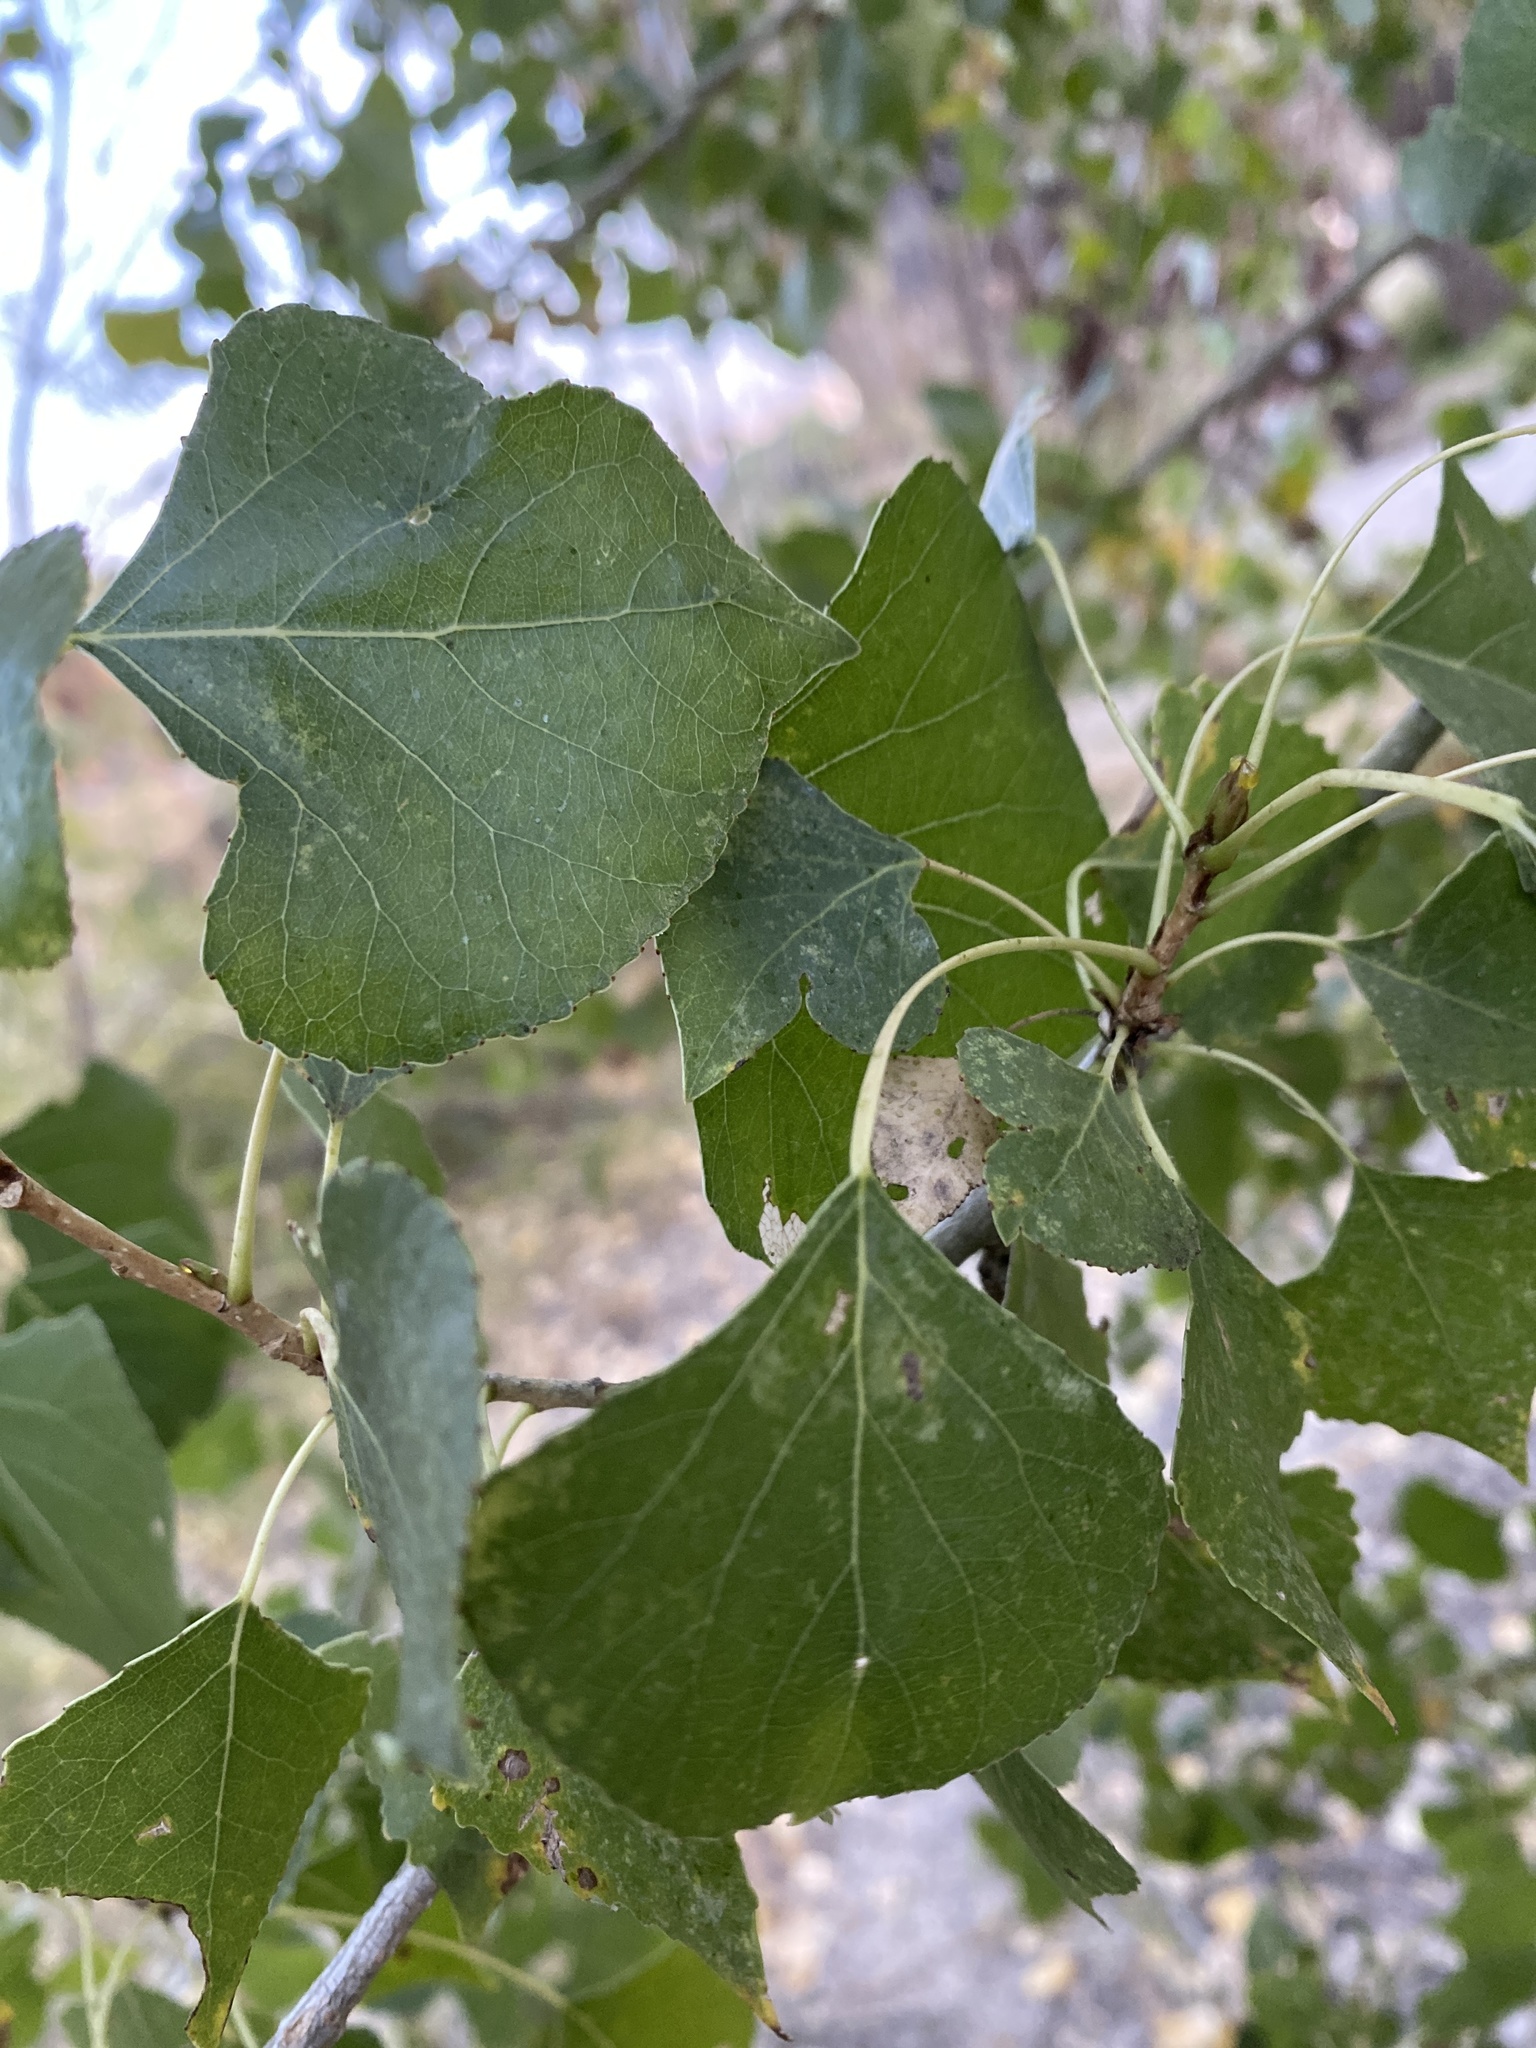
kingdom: Plantae
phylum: Tracheophyta
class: Magnoliopsida
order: Malpighiales
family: Salicaceae
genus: Populus
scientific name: Populus fremontii
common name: Fremont's cottonwood
